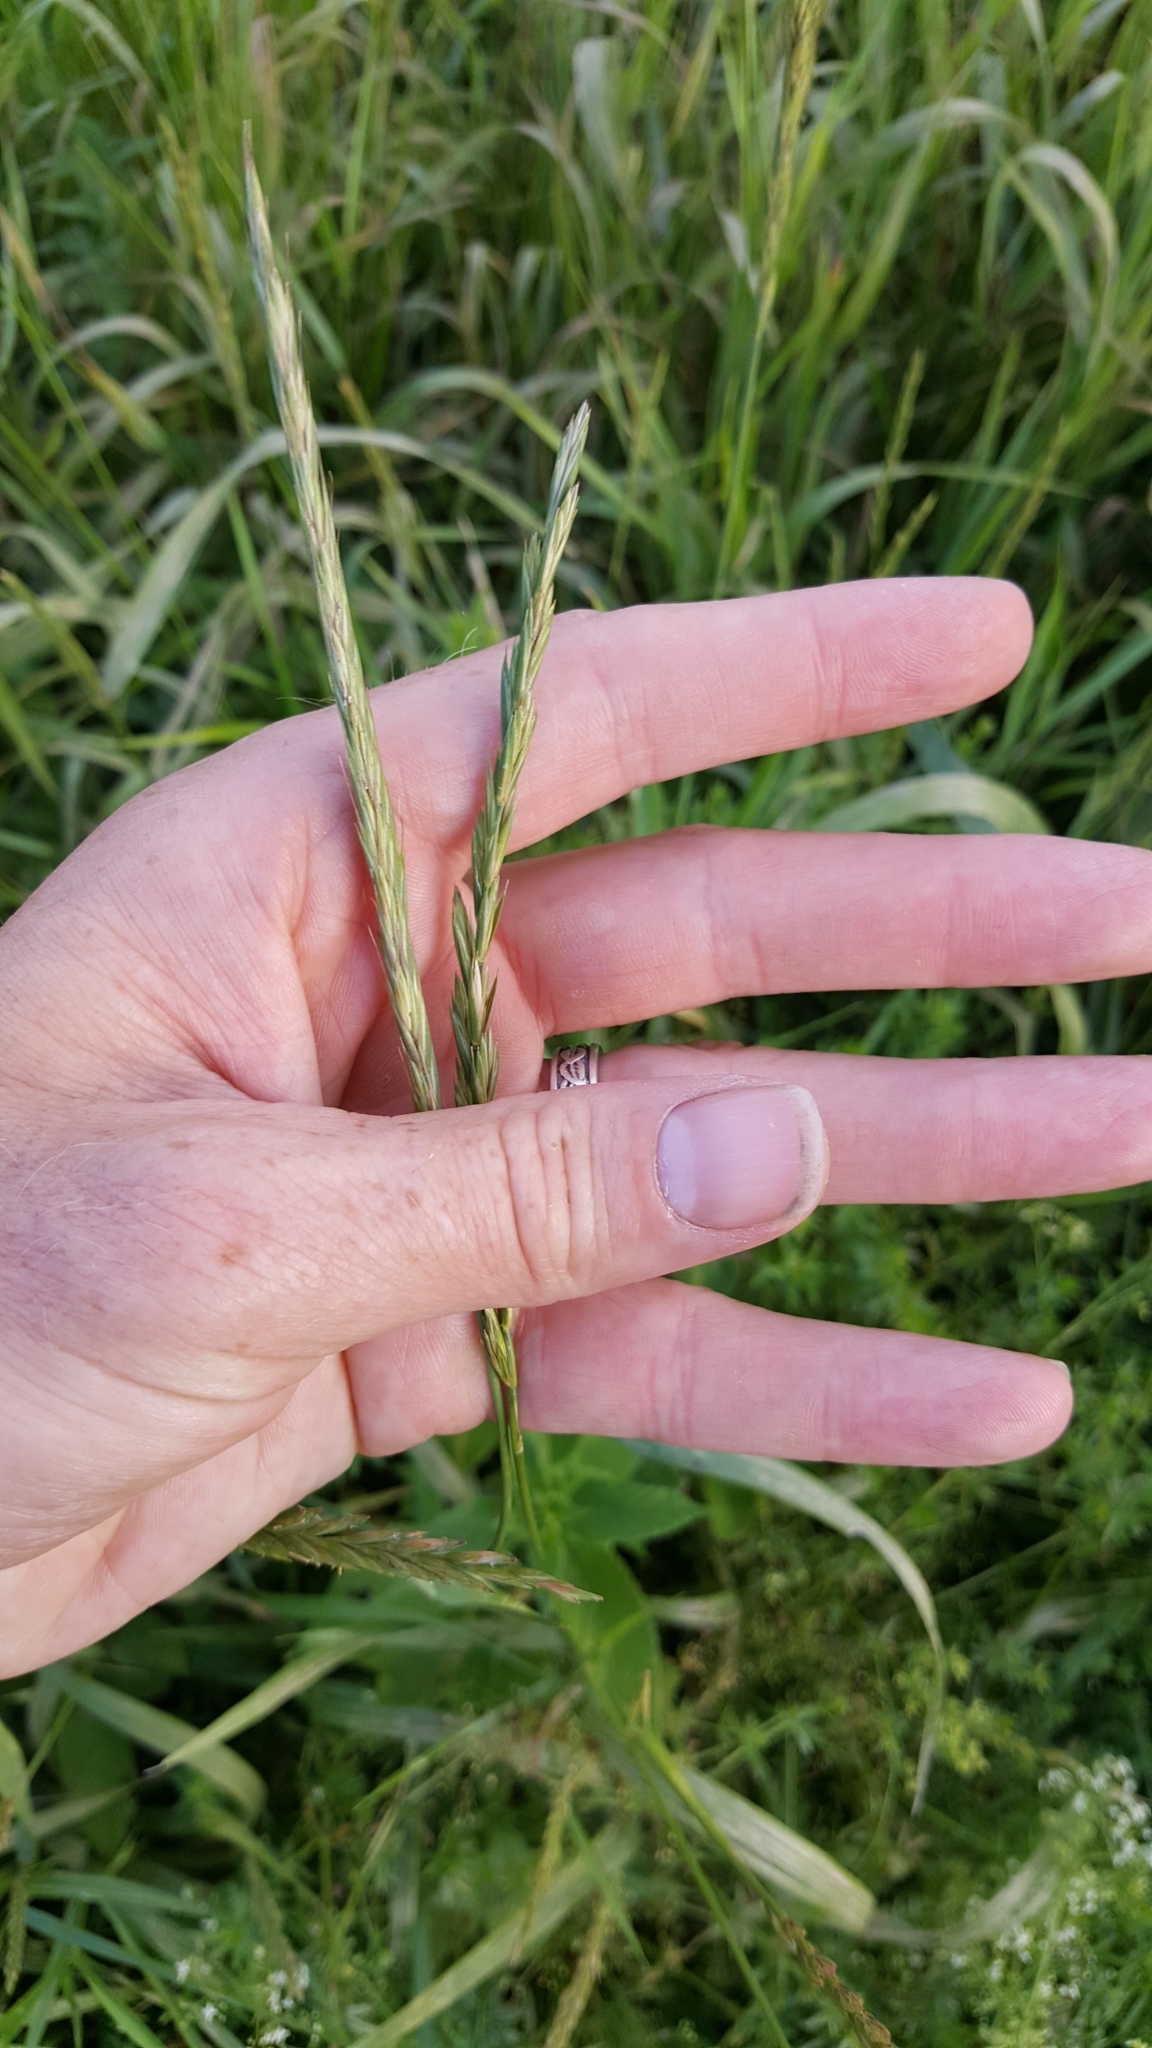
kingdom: Plantae
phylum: Tracheophyta
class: Liliopsida
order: Poales
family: Poaceae
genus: Elymus
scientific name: Elymus repens
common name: Quackgrass
